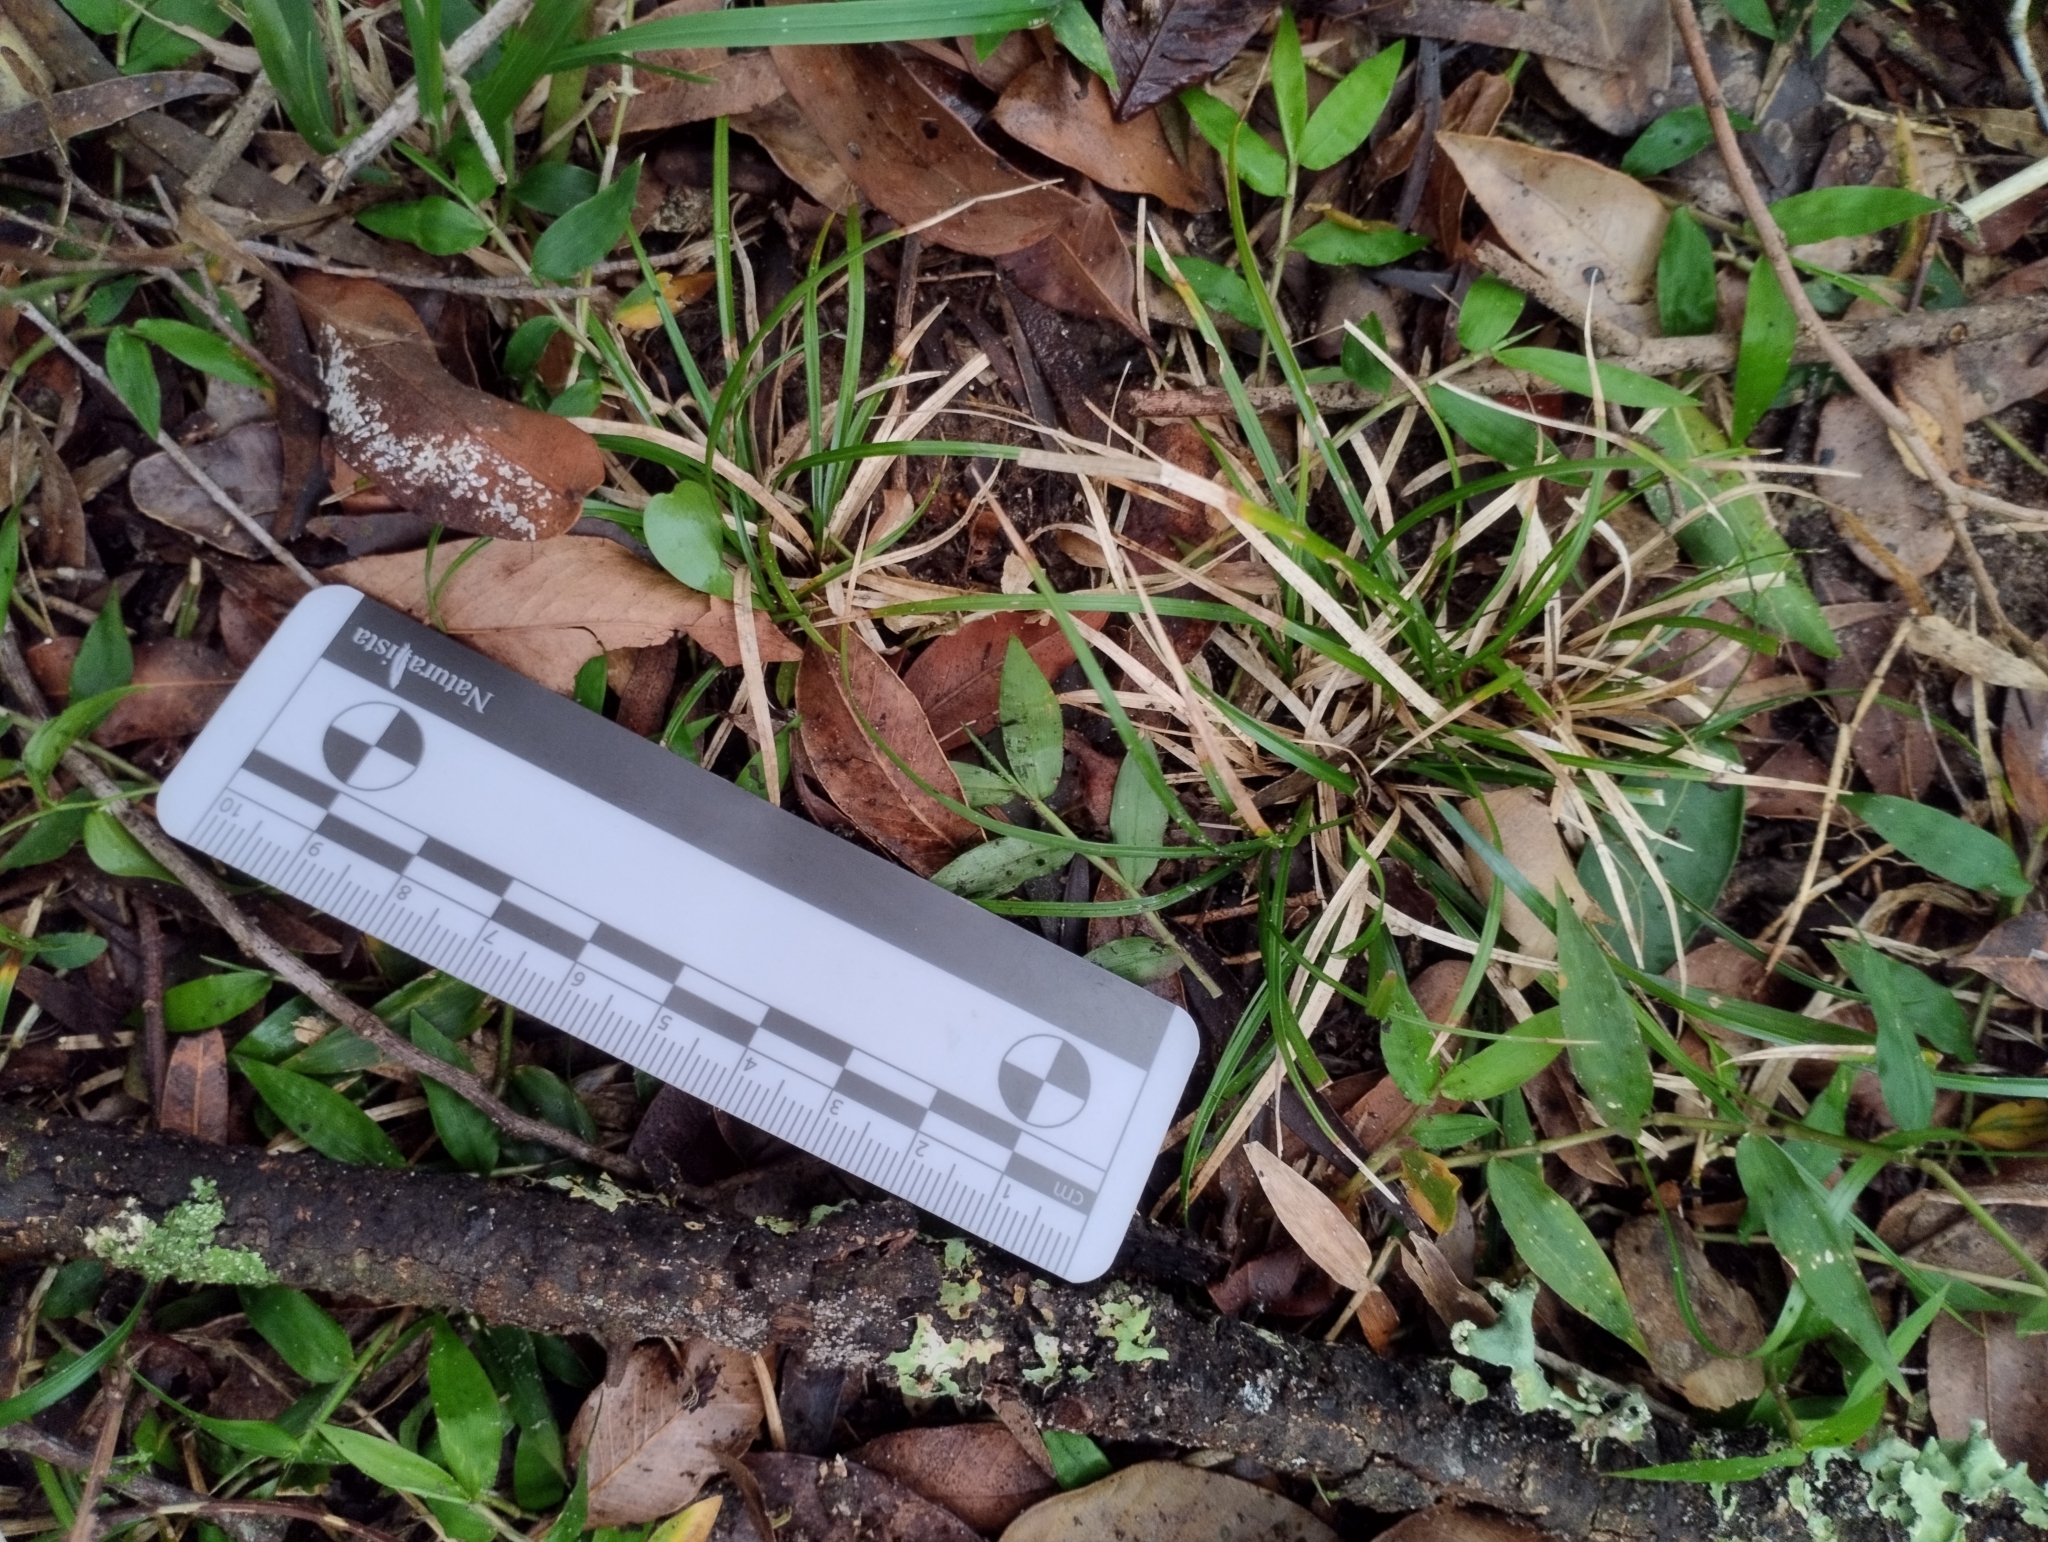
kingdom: Plantae
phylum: Tracheophyta
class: Liliopsida
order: Poales
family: Cyperaceae
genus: Carex
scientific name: Carex sellowiana
